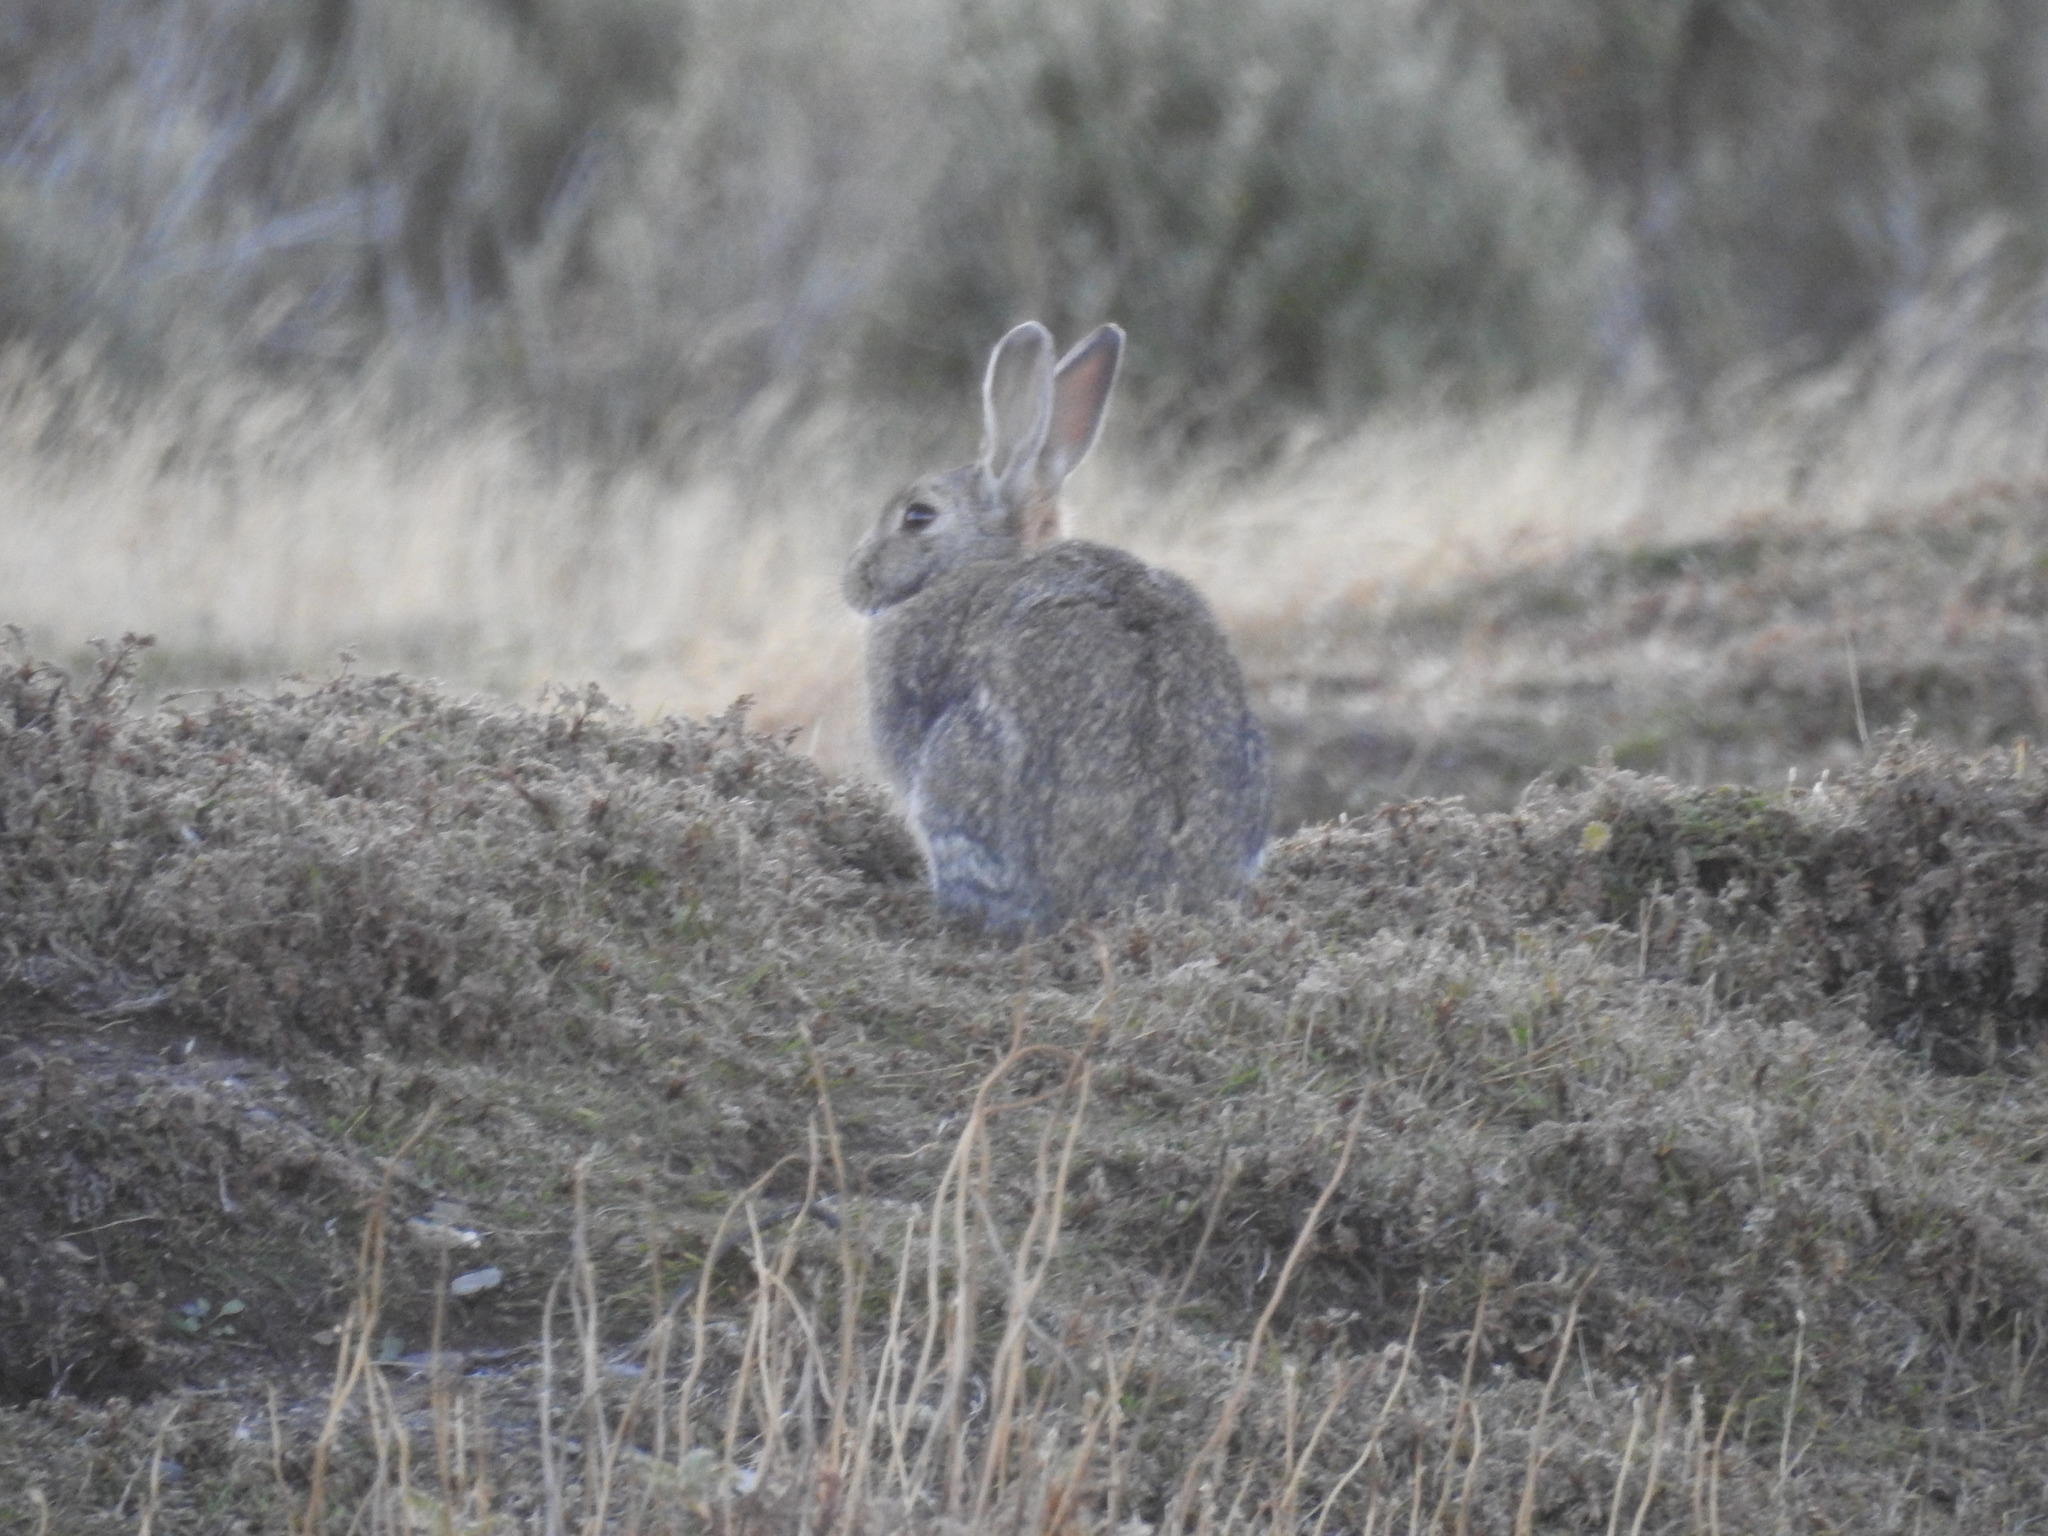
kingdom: Animalia
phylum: Chordata
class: Mammalia
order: Lagomorpha
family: Leporidae
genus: Oryctolagus
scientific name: Oryctolagus cuniculus
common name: European rabbit
